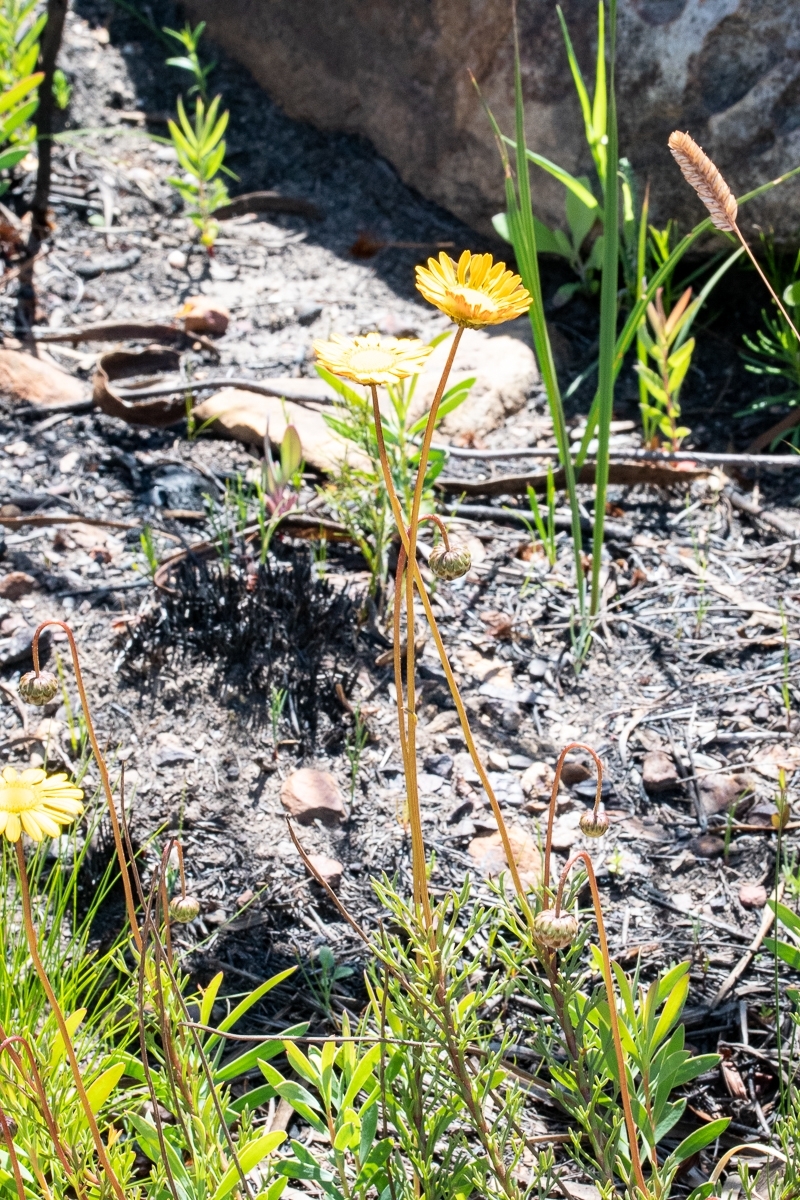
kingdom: Plantae
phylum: Tracheophyta
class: Magnoliopsida
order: Asterales
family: Asteraceae
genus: Ursinia
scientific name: Ursinia paleacea
